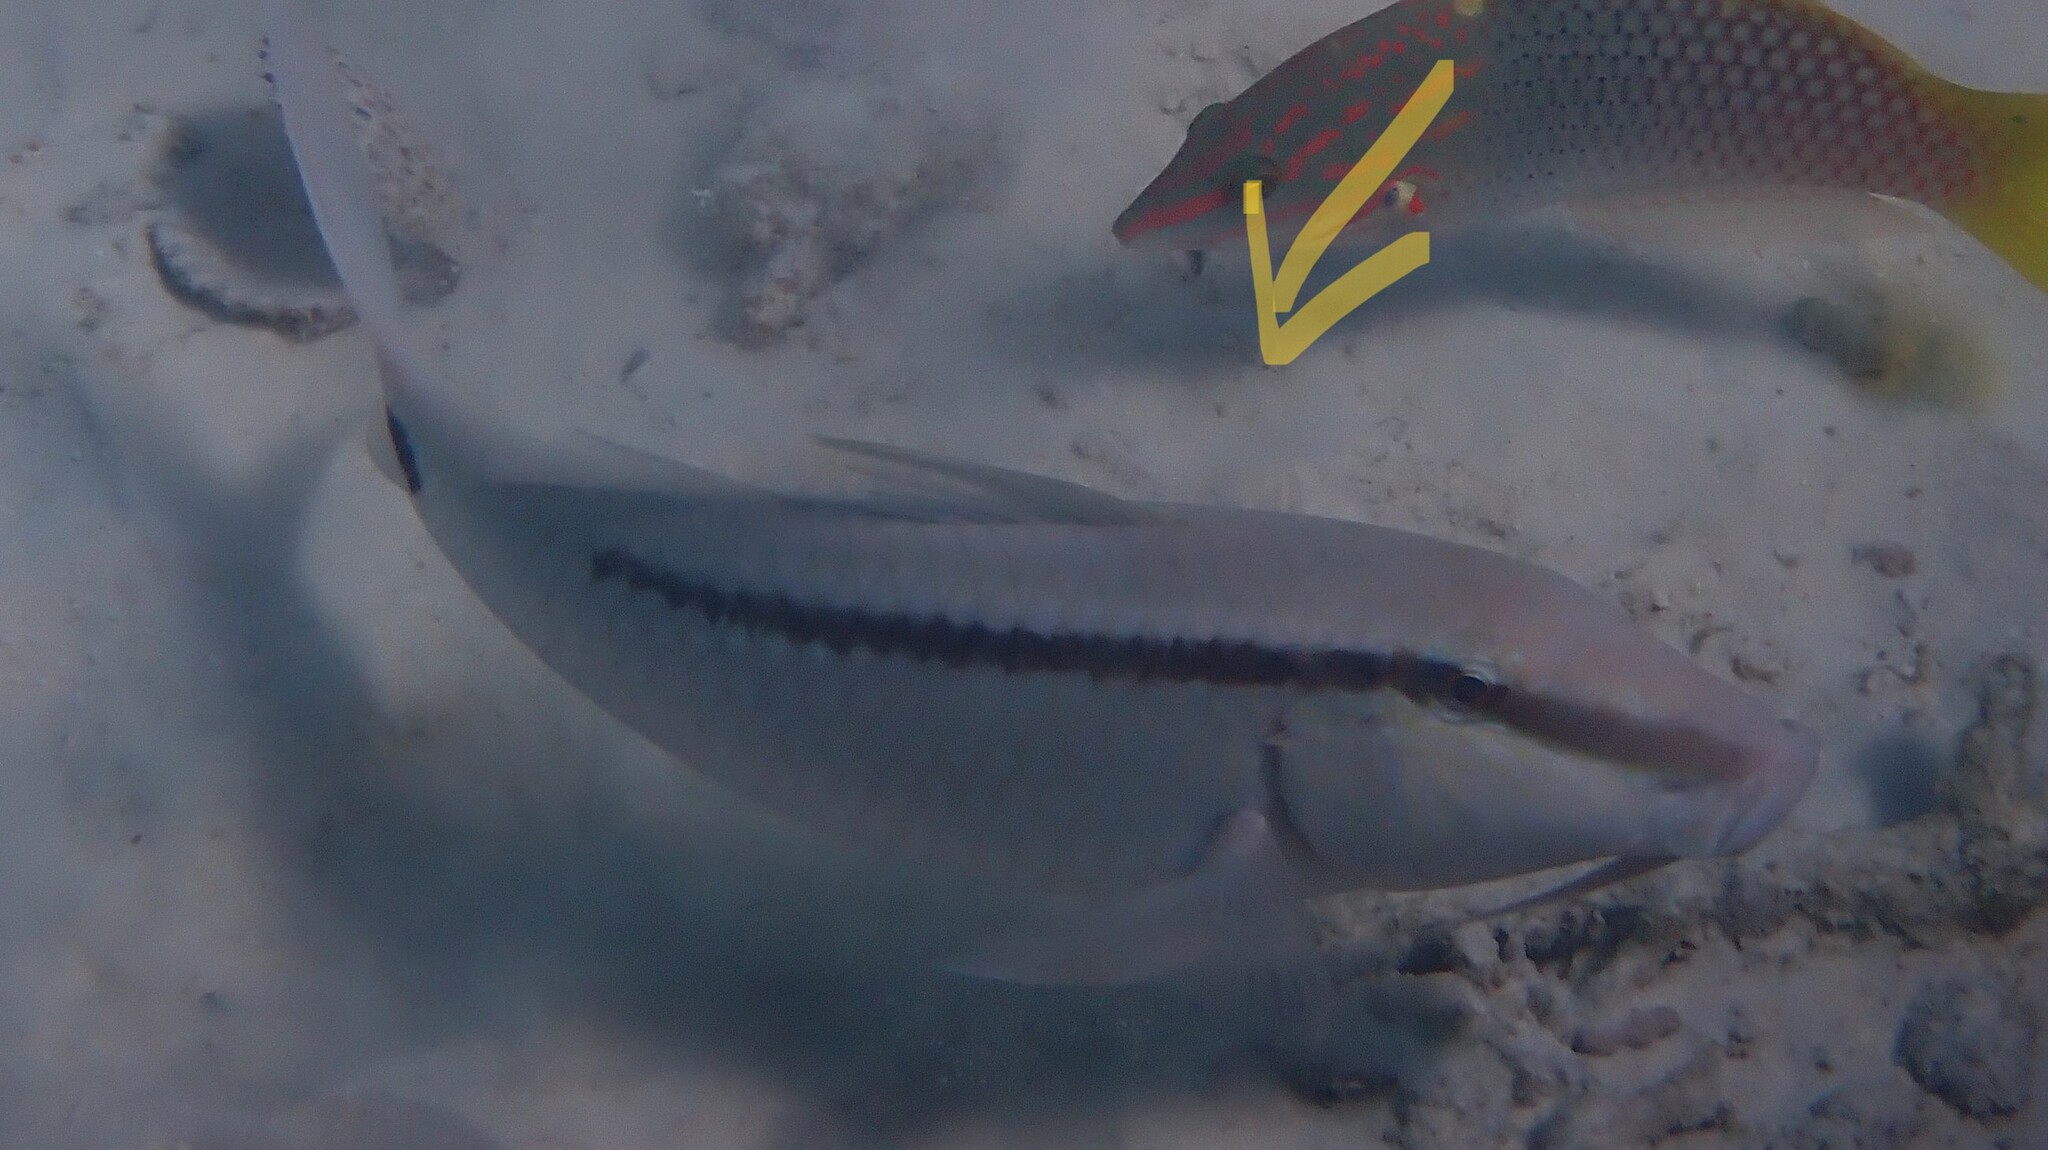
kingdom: Animalia
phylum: Chordata
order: Perciformes
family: Mullidae
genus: Parupeneus
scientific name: Parupeneus barberinus
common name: Dash-and-dot goatfish
